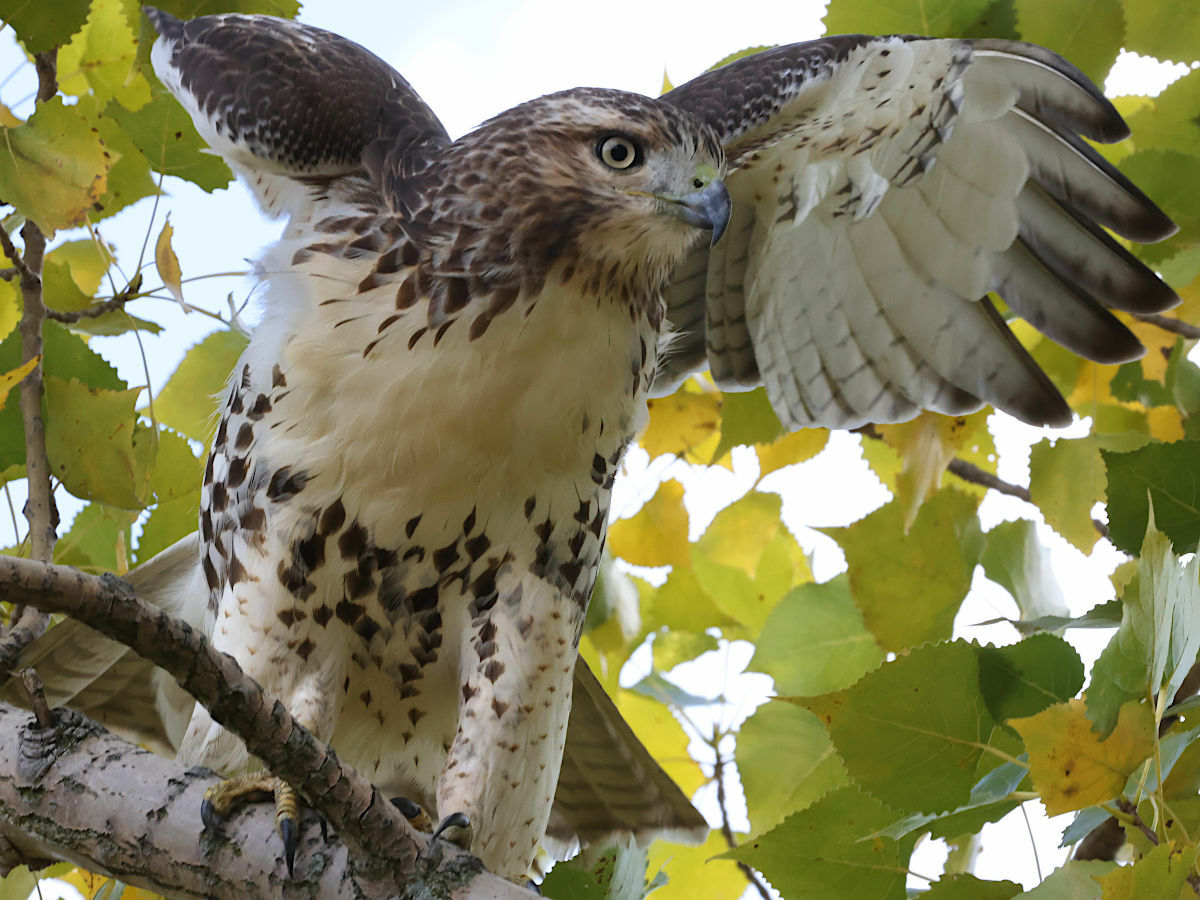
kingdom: Animalia
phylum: Chordata
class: Aves
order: Accipitriformes
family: Accipitridae
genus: Buteo
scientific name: Buteo jamaicensis
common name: Red-tailed hawk
